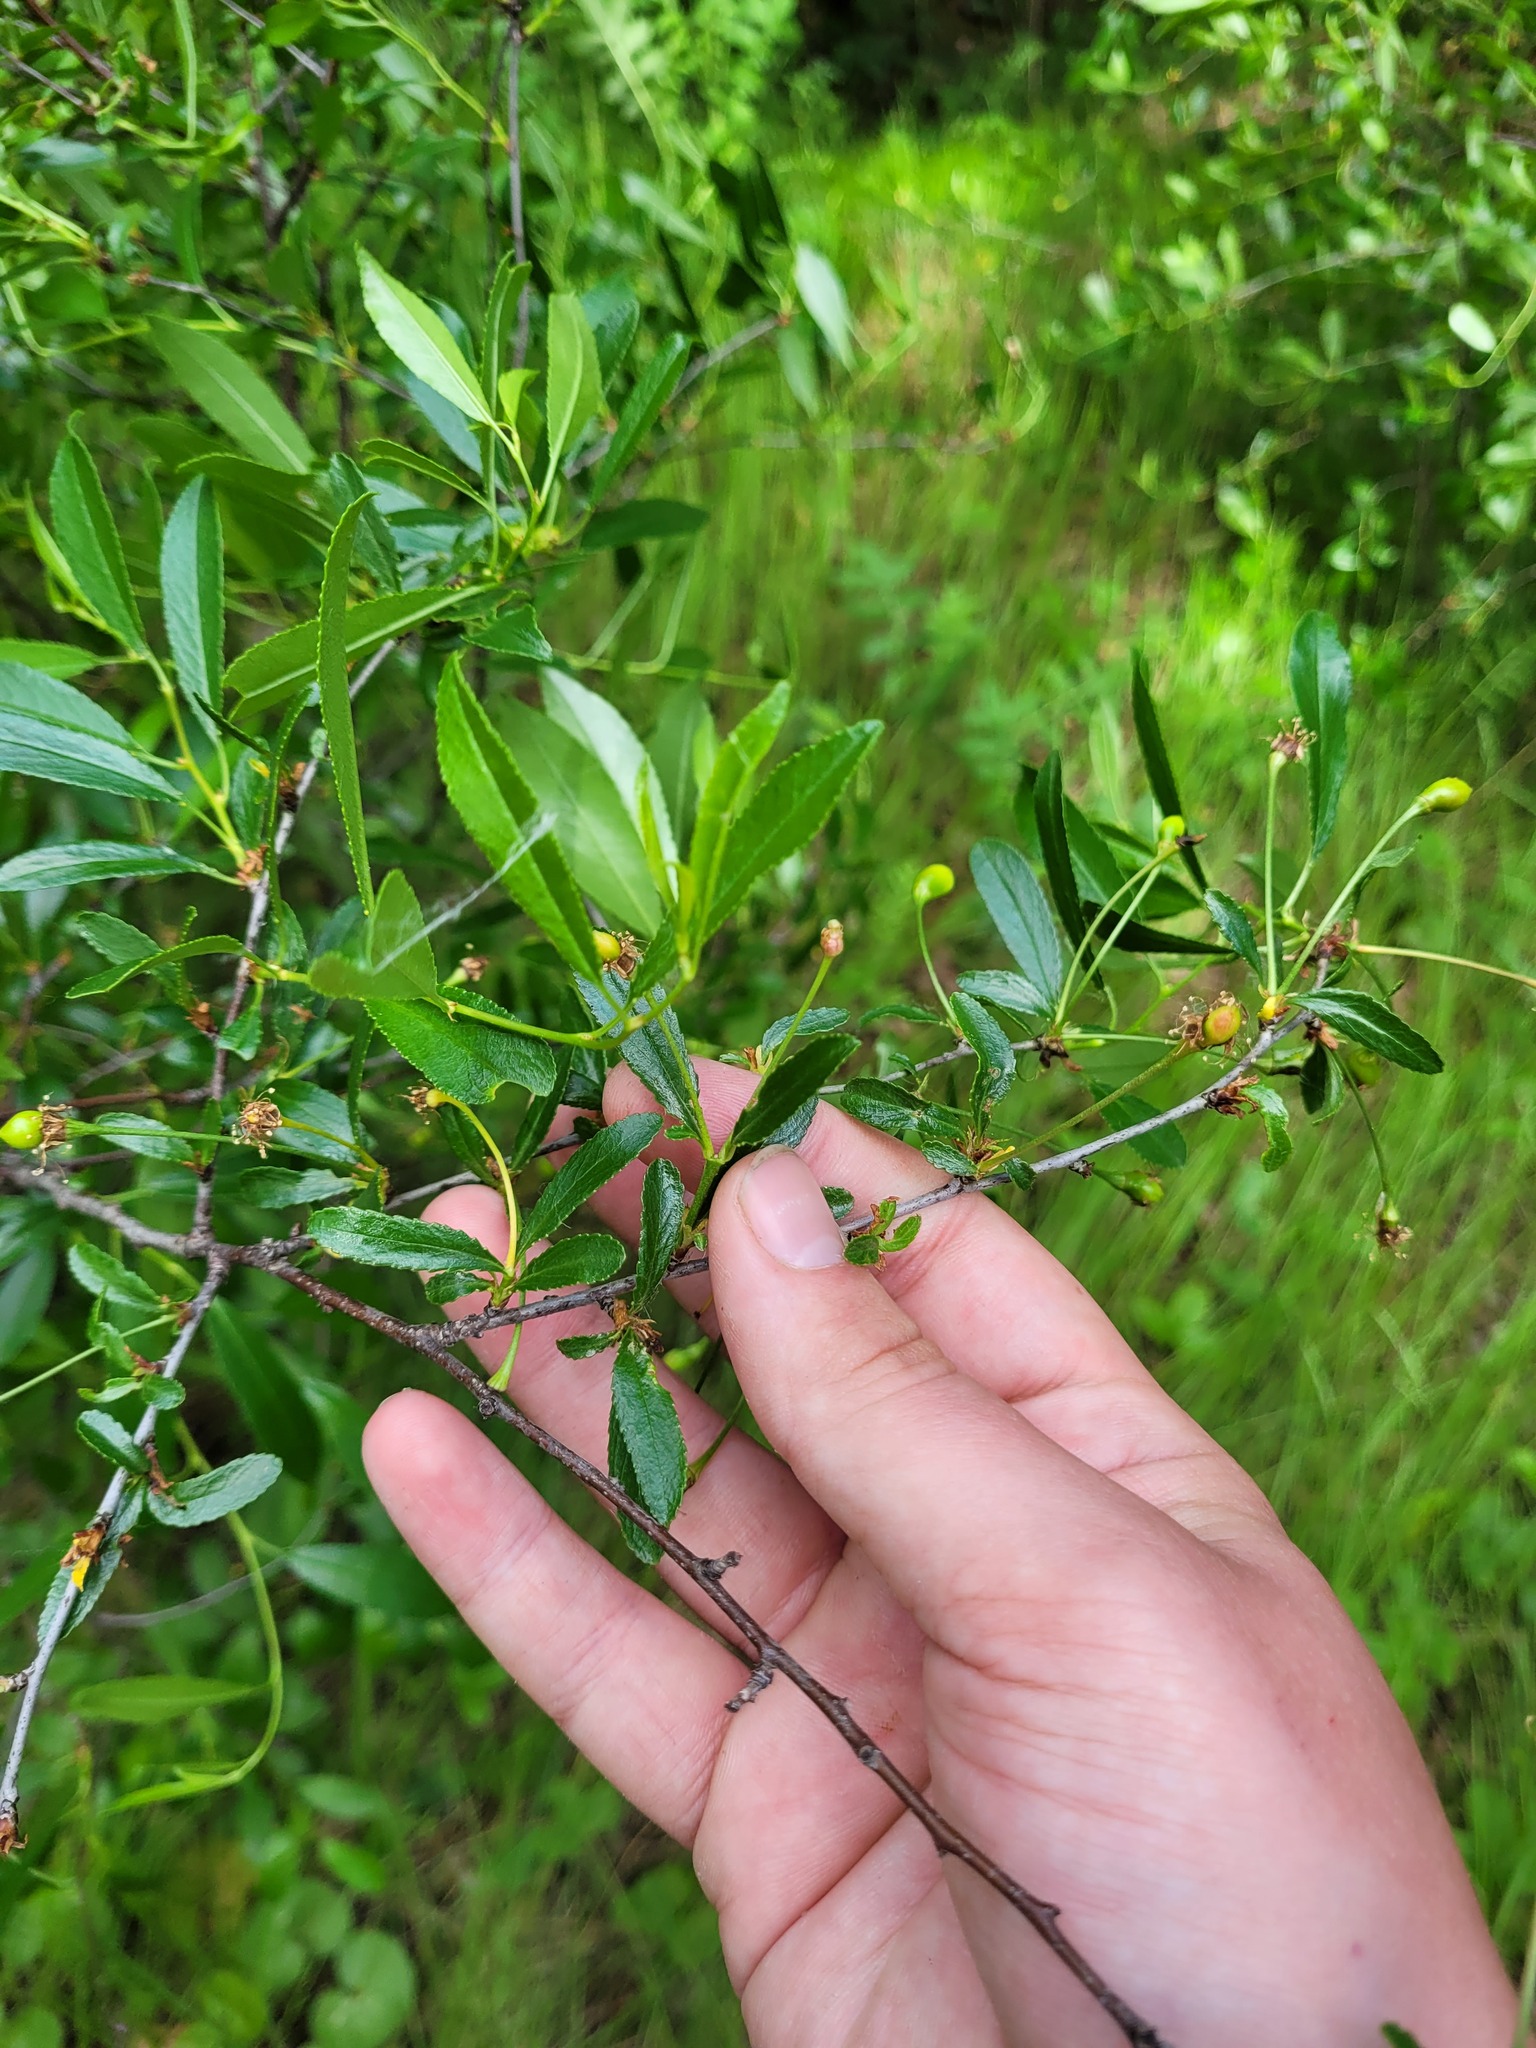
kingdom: Plantae
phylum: Tracheophyta
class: Magnoliopsida
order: Rosales
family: Rosaceae
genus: Prunus
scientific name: Prunus fruticosa
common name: European dwarf cherry
